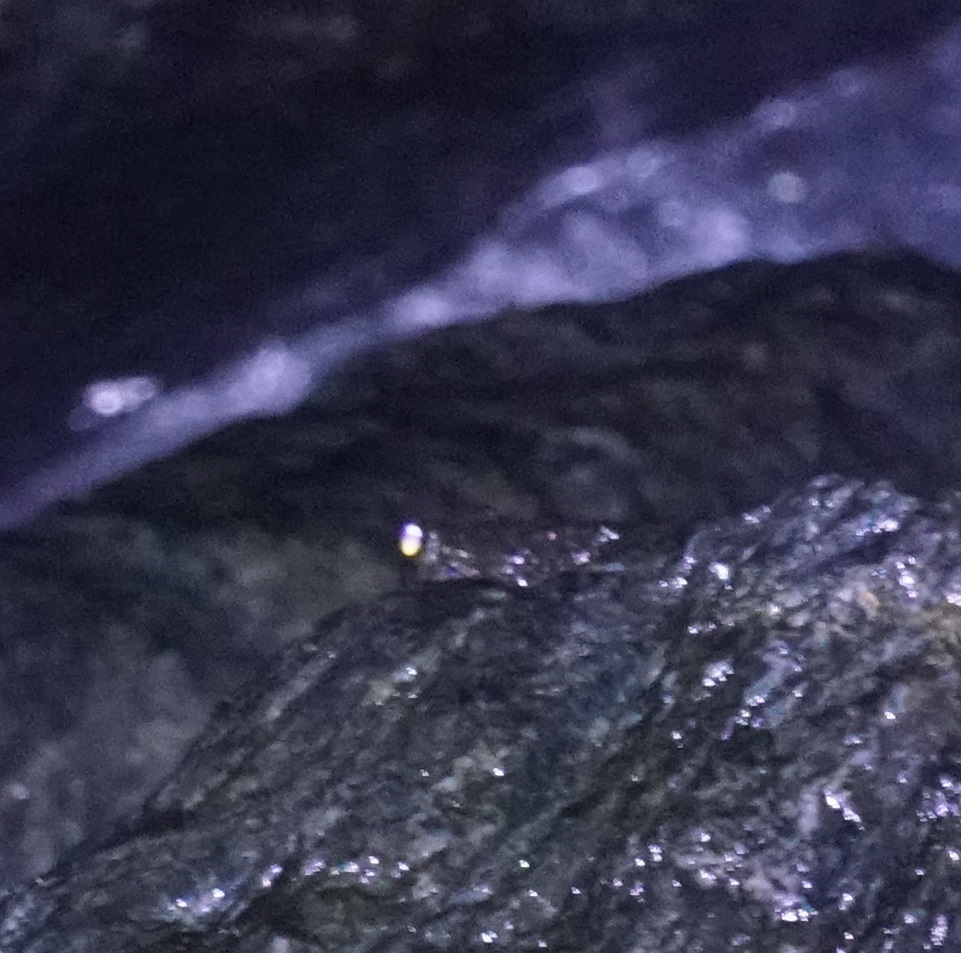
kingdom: Animalia
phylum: Chordata
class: Amphibia
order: Anura
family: Pelodryadidae
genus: Ranoidea
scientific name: Ranoidea nannotis
